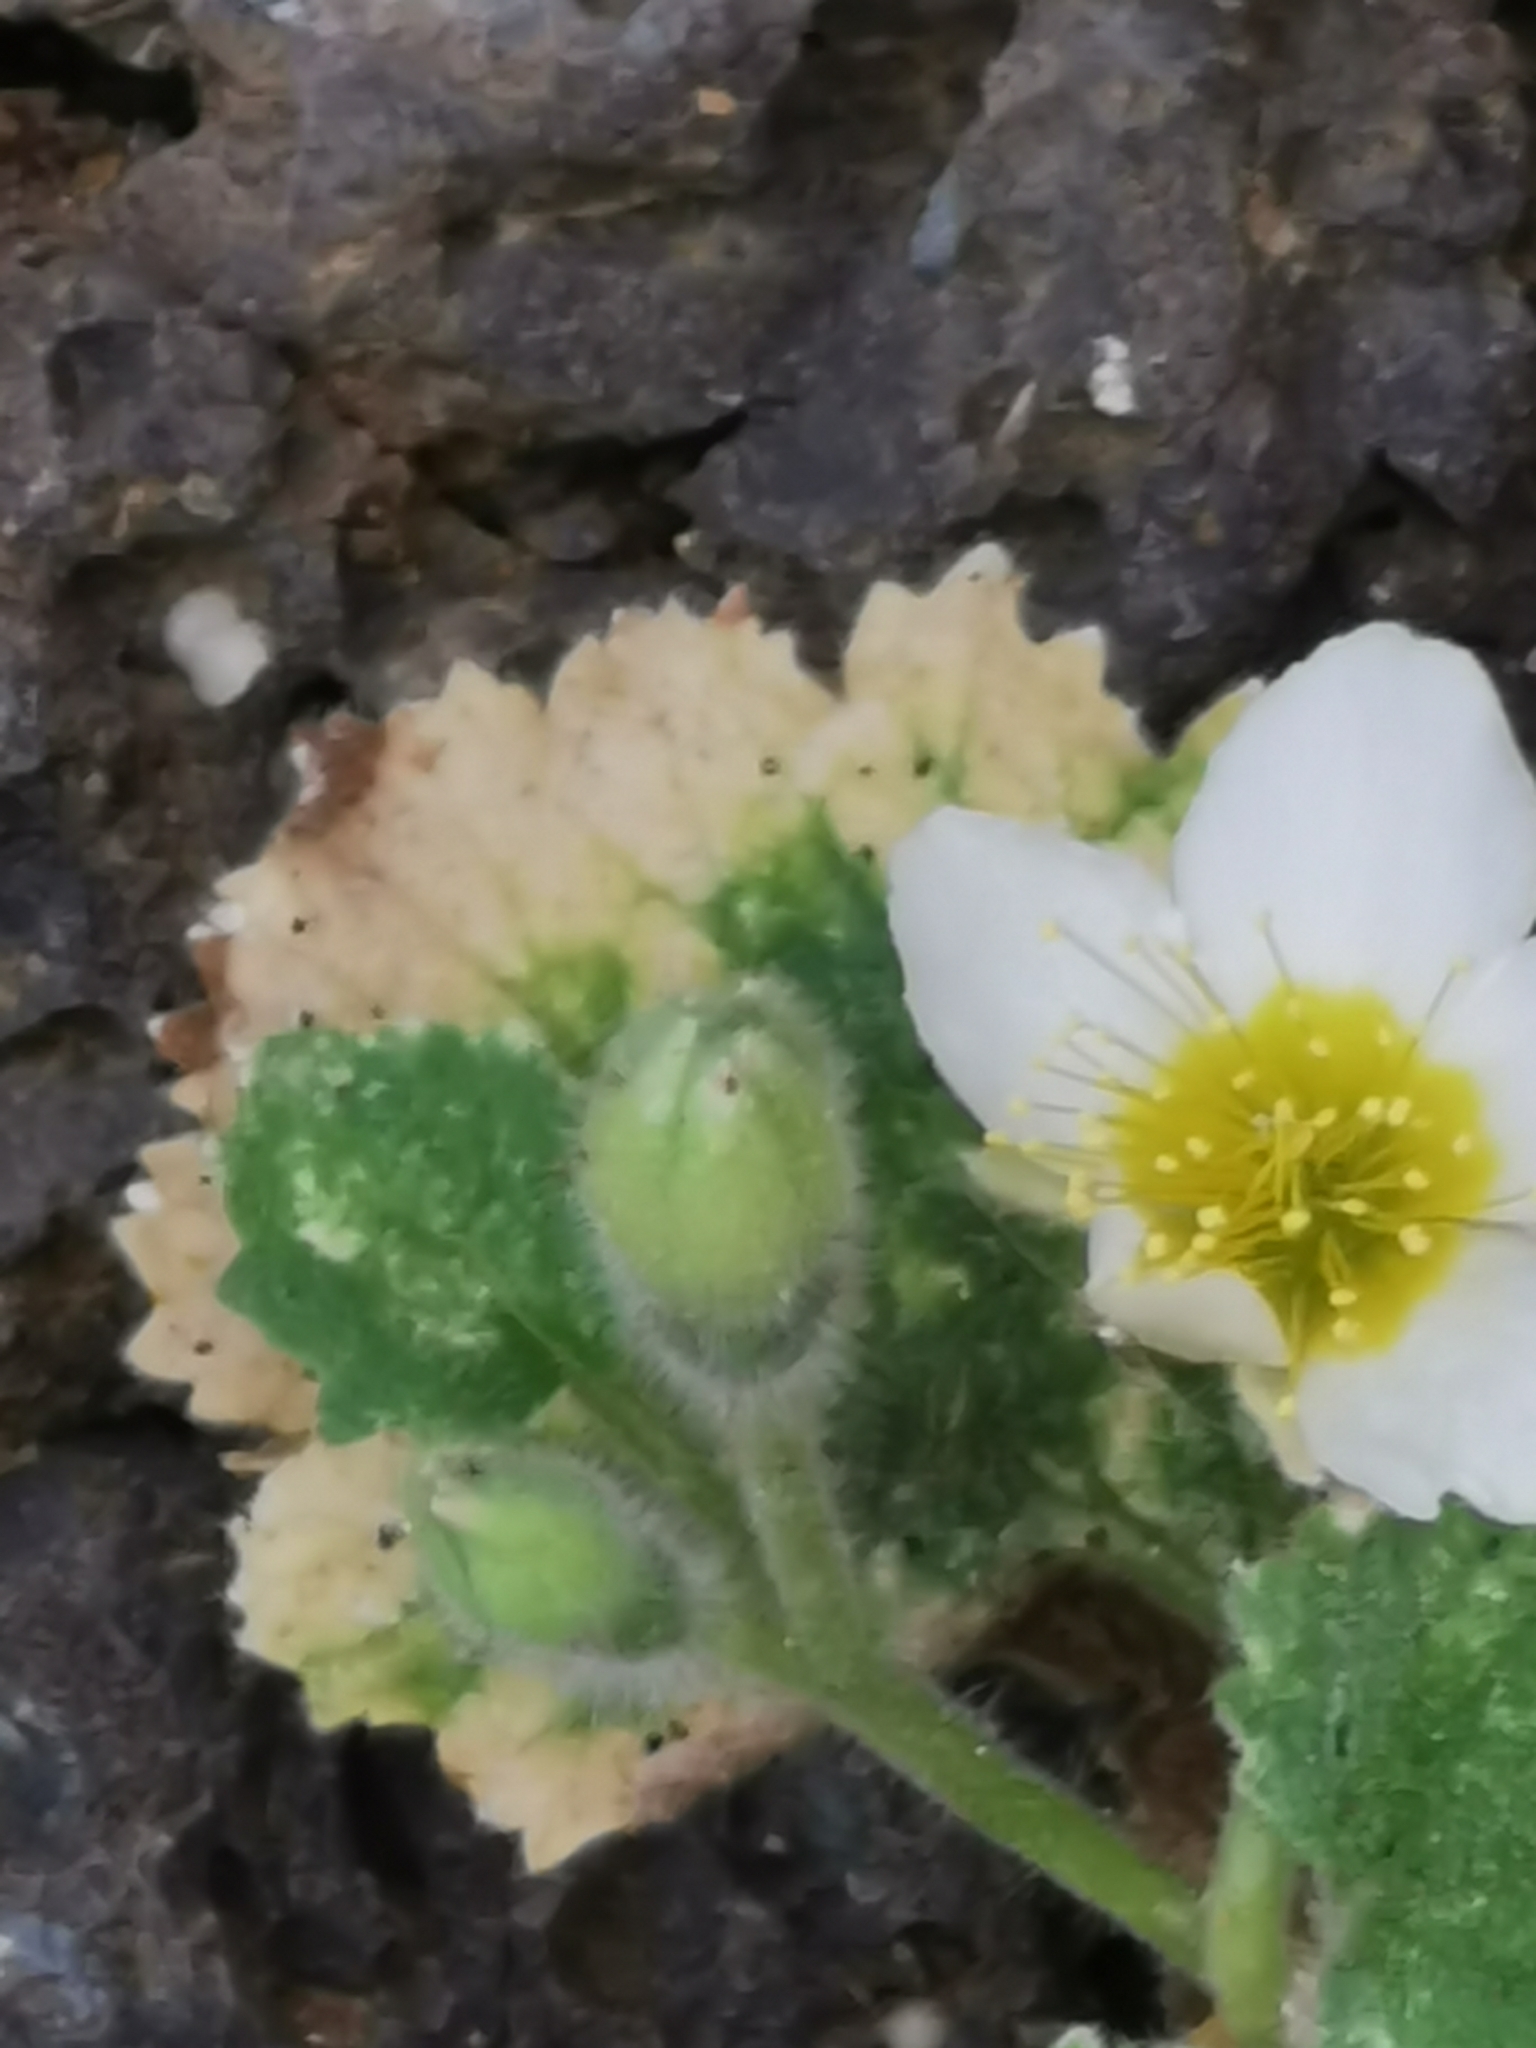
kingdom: Plantae
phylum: Tracheophyta
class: Magnoliopsida
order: Cornales
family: Loasaceae
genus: Eucnide
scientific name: Eucnide durangensis
